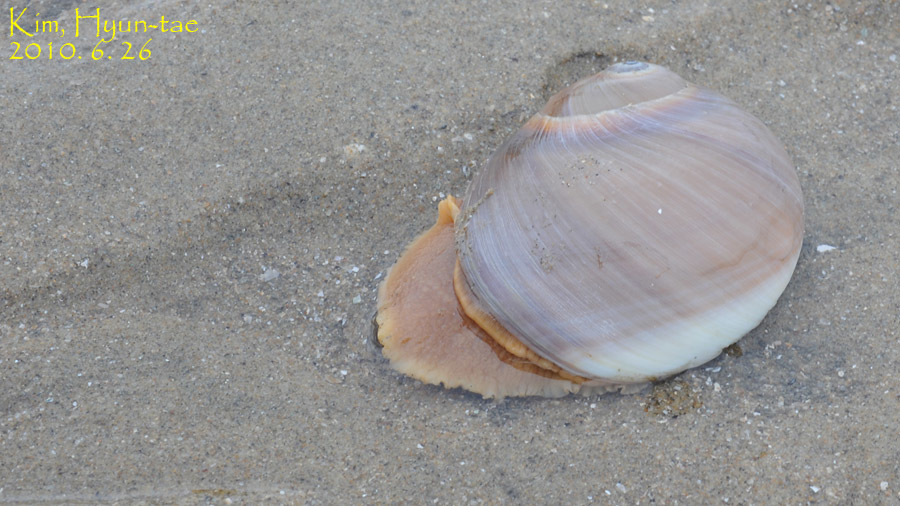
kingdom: Animalia
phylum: Mollusca
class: Gastropoda
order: Littorinimorpha
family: Naticidae
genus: Neverita
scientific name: Neverita didyma
